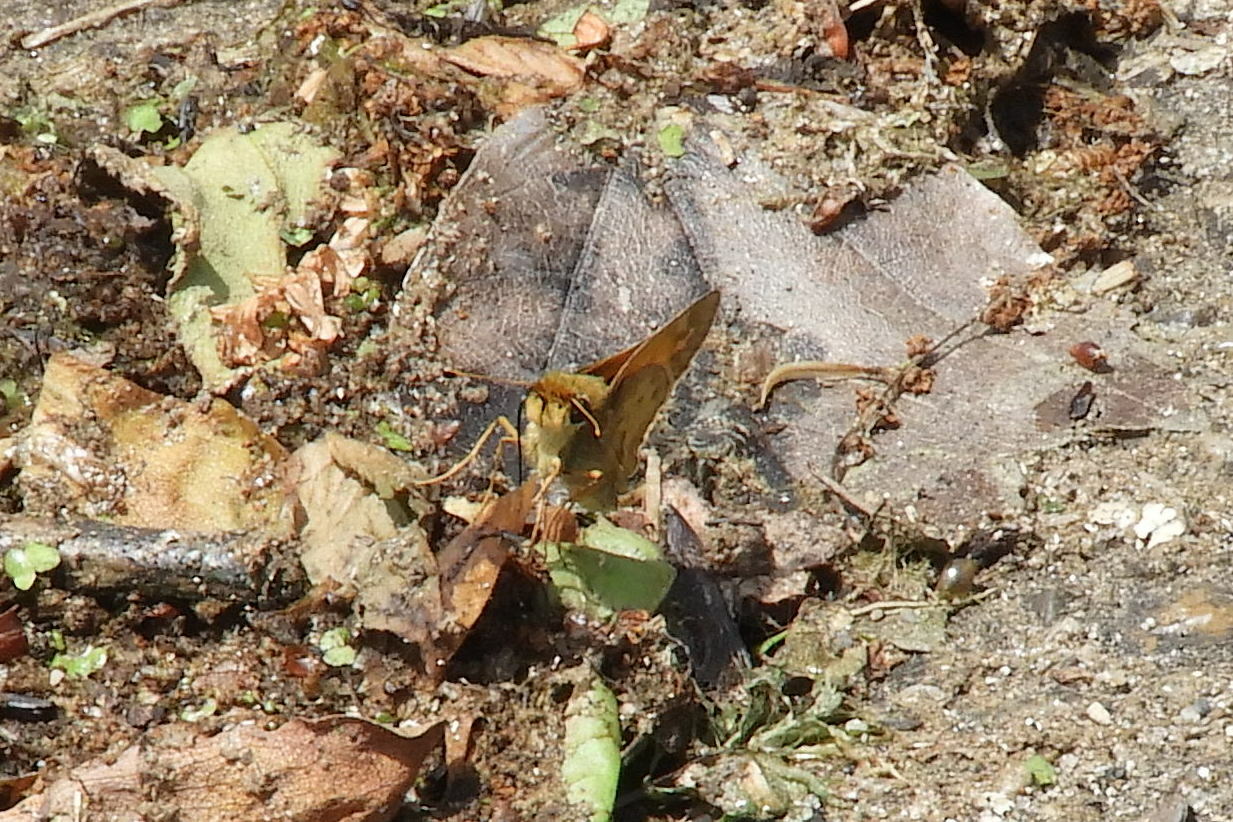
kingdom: Animalia
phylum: Arthropoda
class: Insecta
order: Lepidoptera
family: Hesperiidae
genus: Atalopedes
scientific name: Atalopedes
